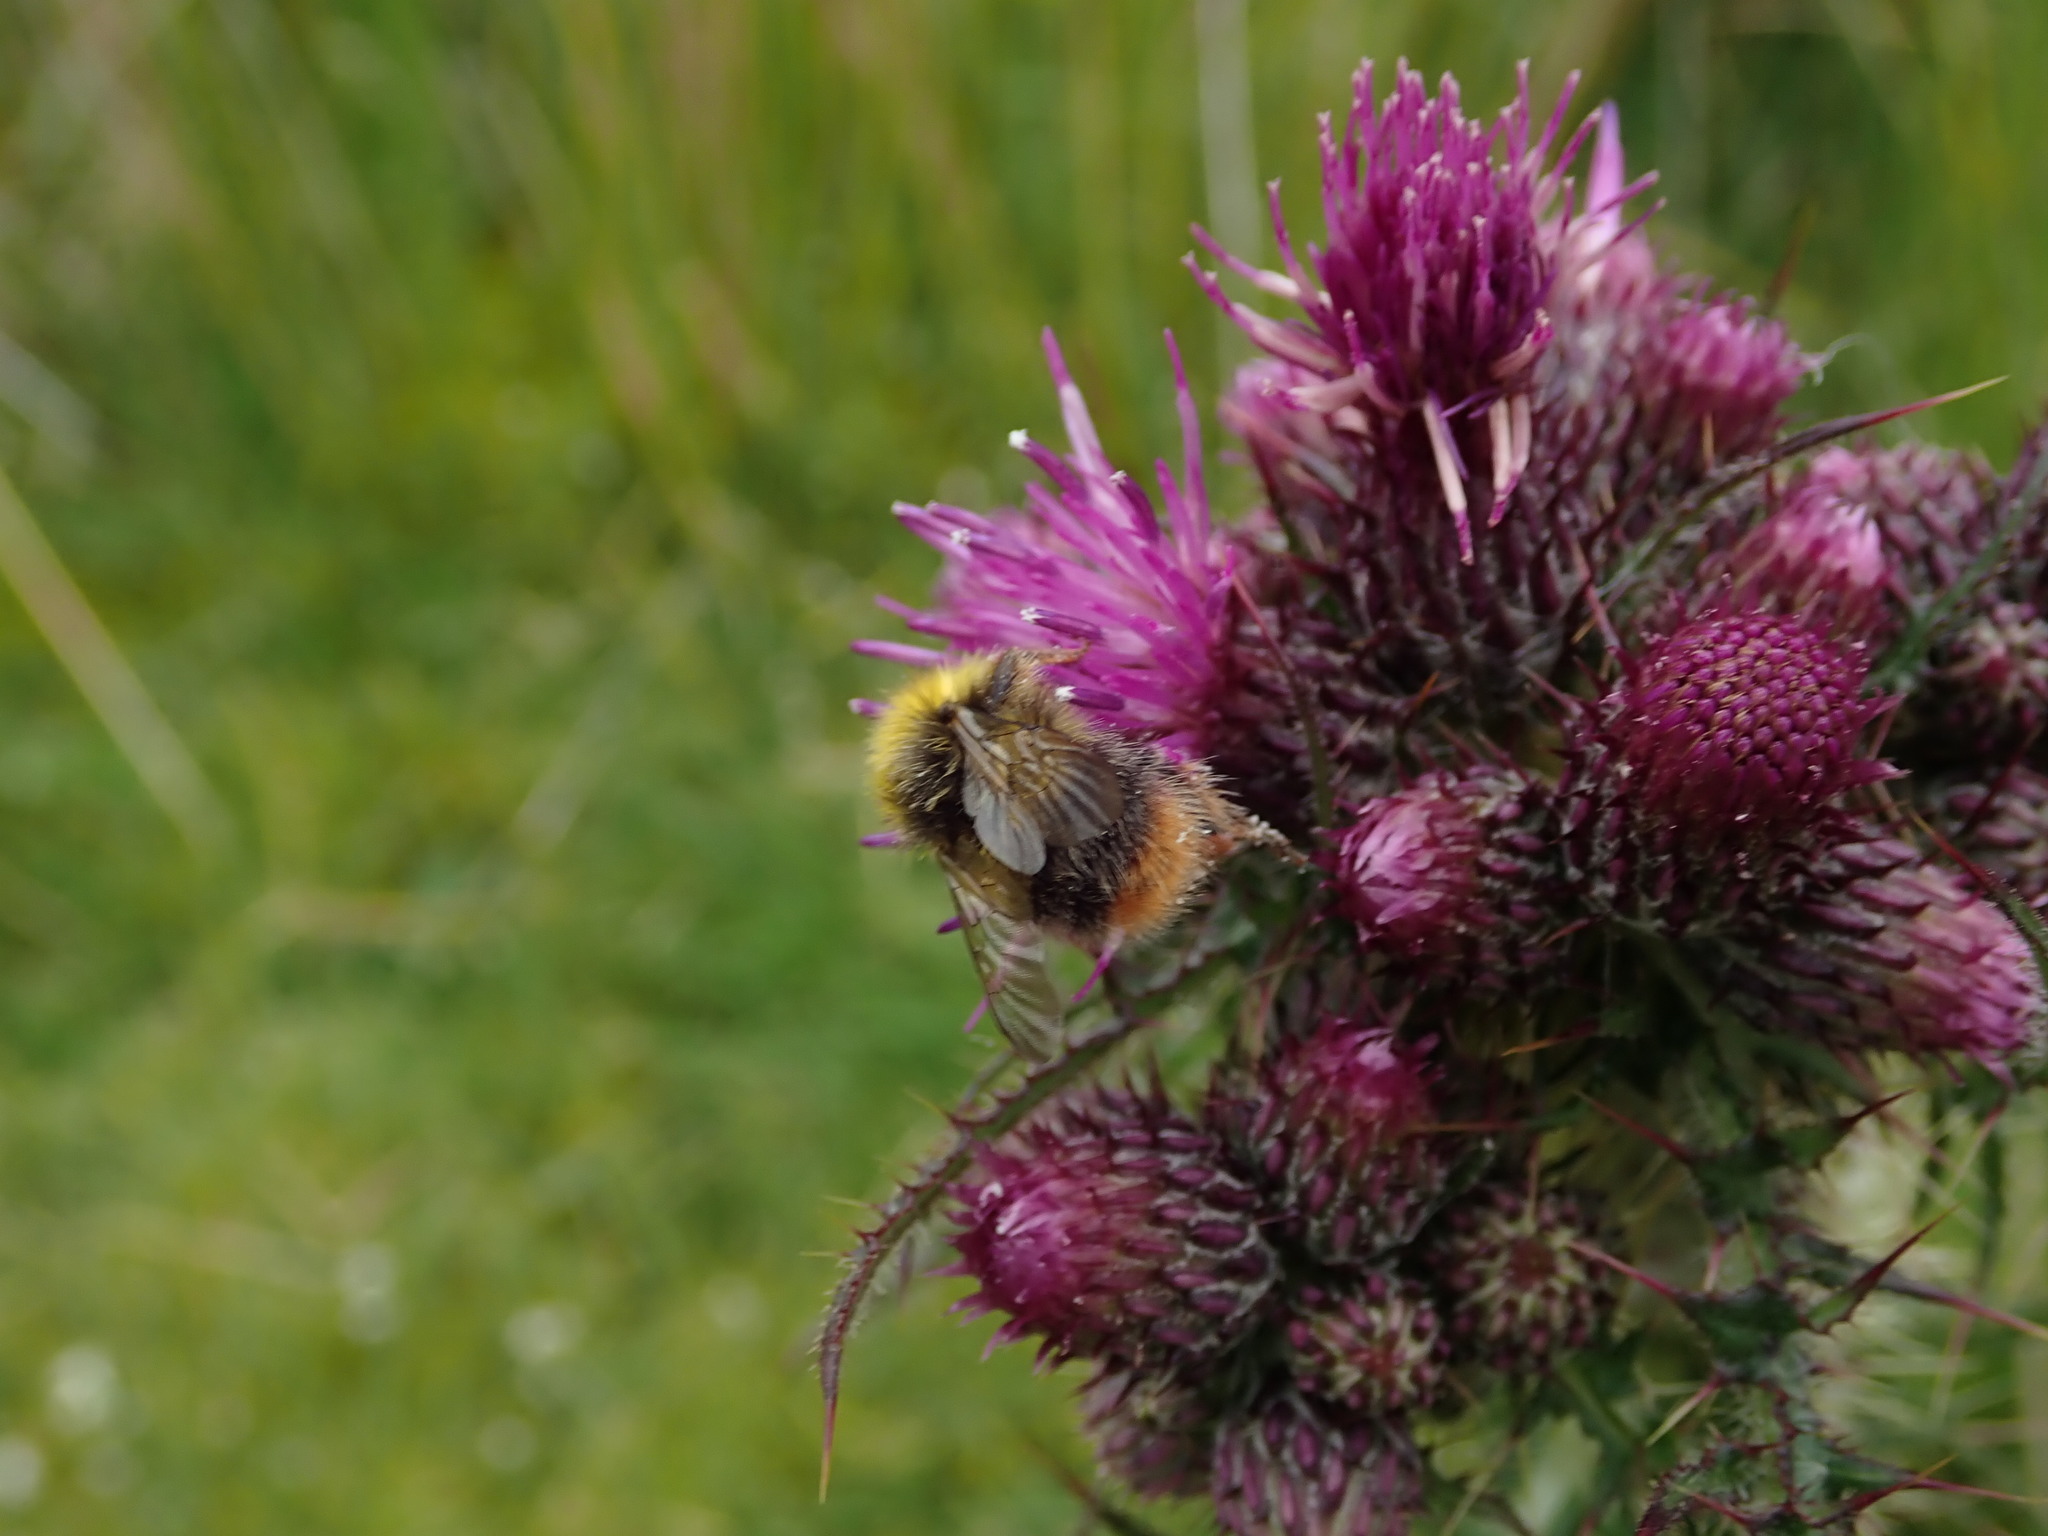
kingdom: Animalia
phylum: Arthropoda
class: Insecta
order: Hymenoptera
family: Apidae
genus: Bombus
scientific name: Bombus pratorum
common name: Early humble-bee
